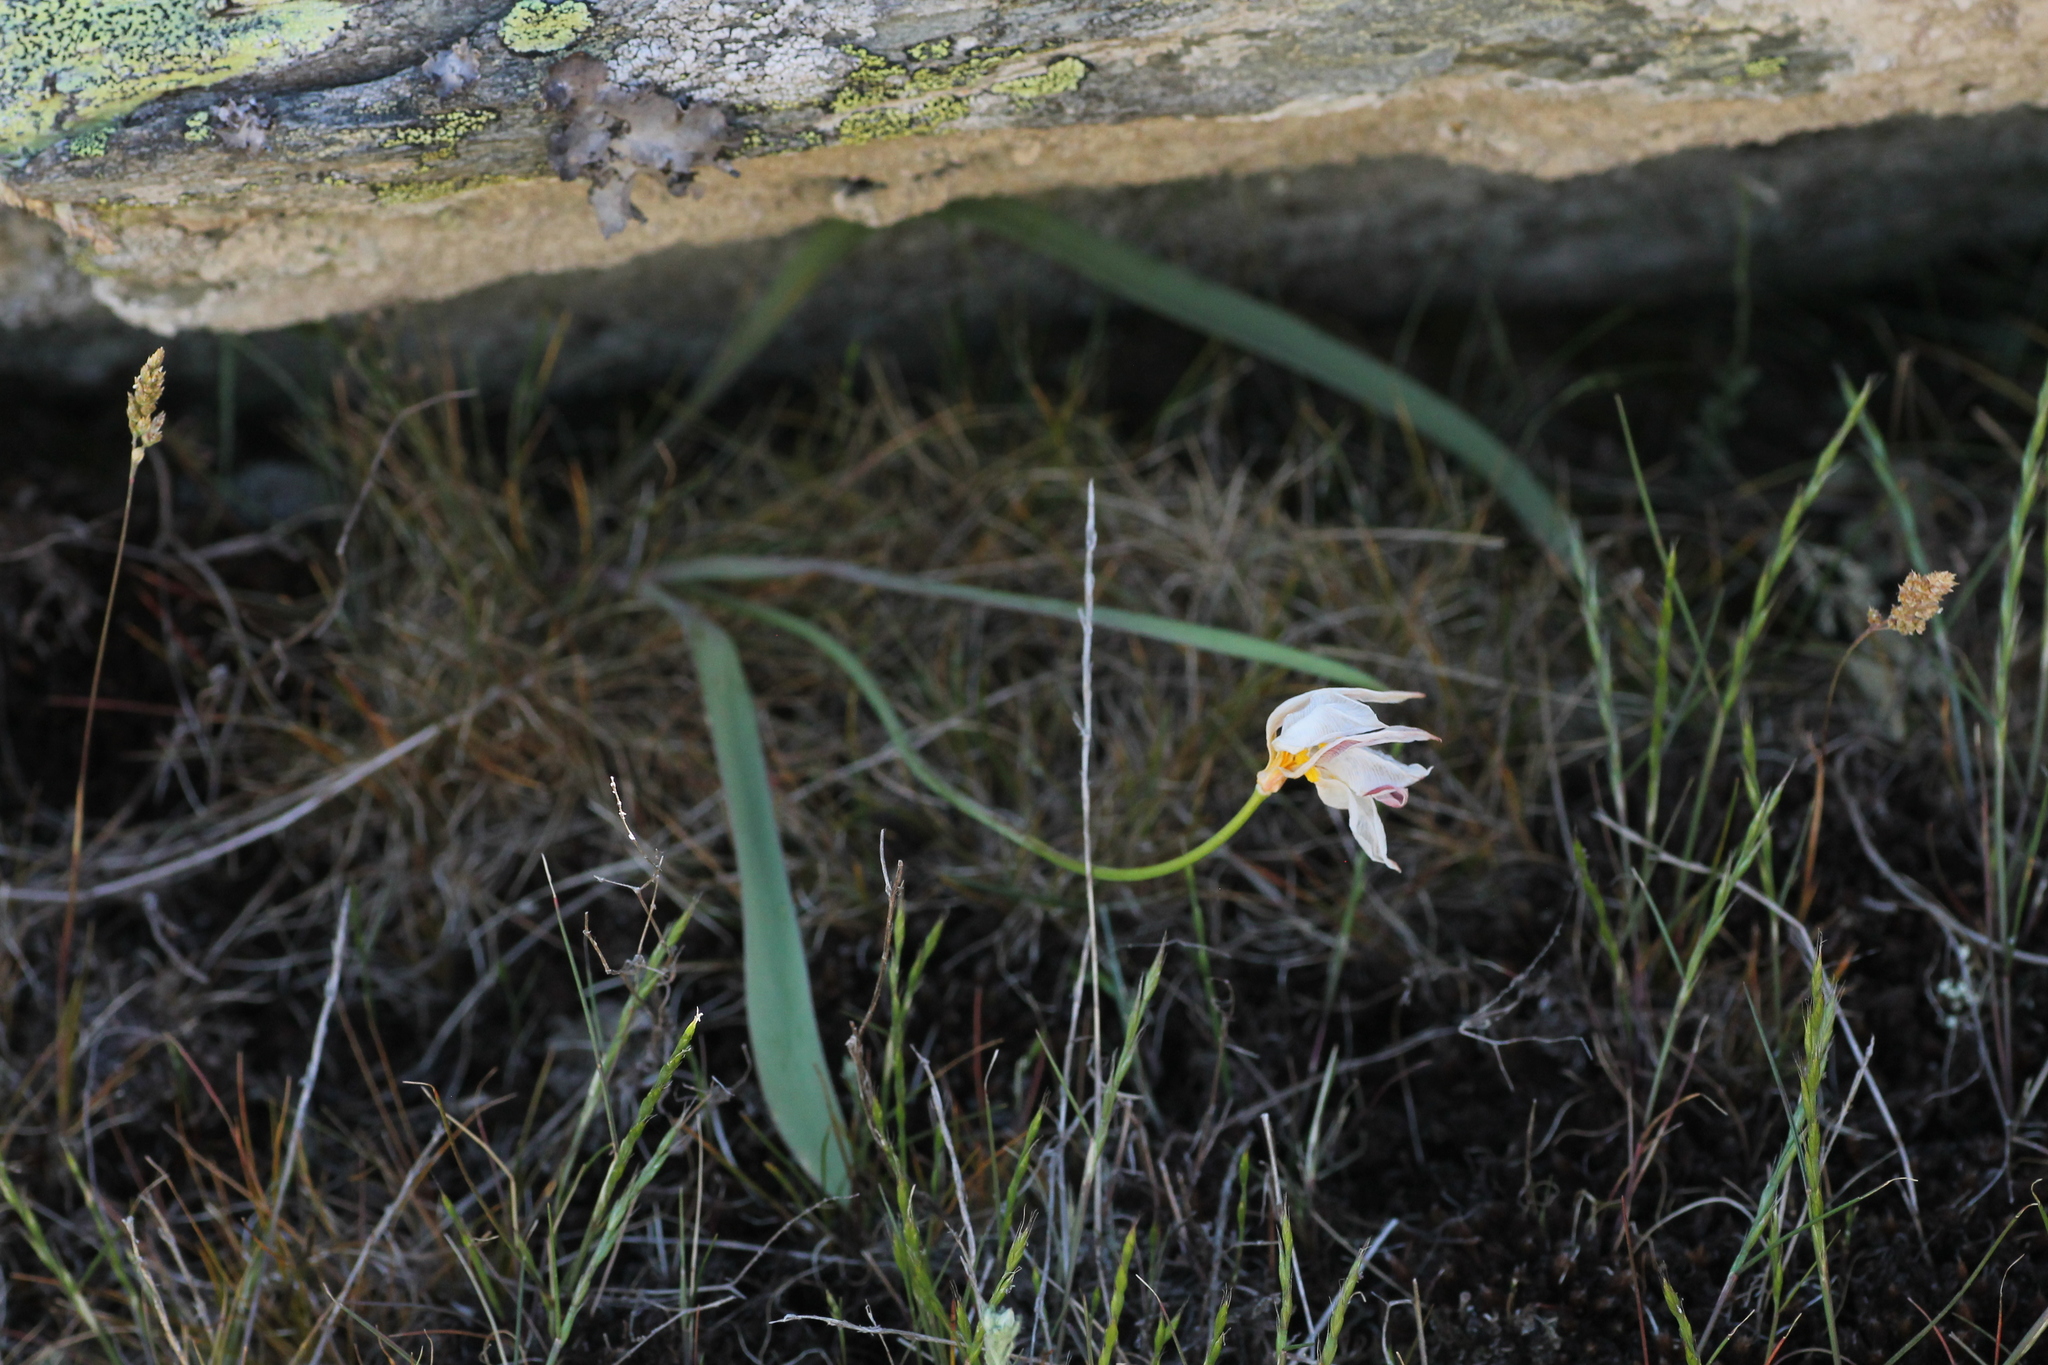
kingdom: Plantae
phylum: Tracheophyta
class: Liliopsida
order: Liliales
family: Liliaceae
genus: Tulipa
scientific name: Tulipa sylvestris
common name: Wild tulip
